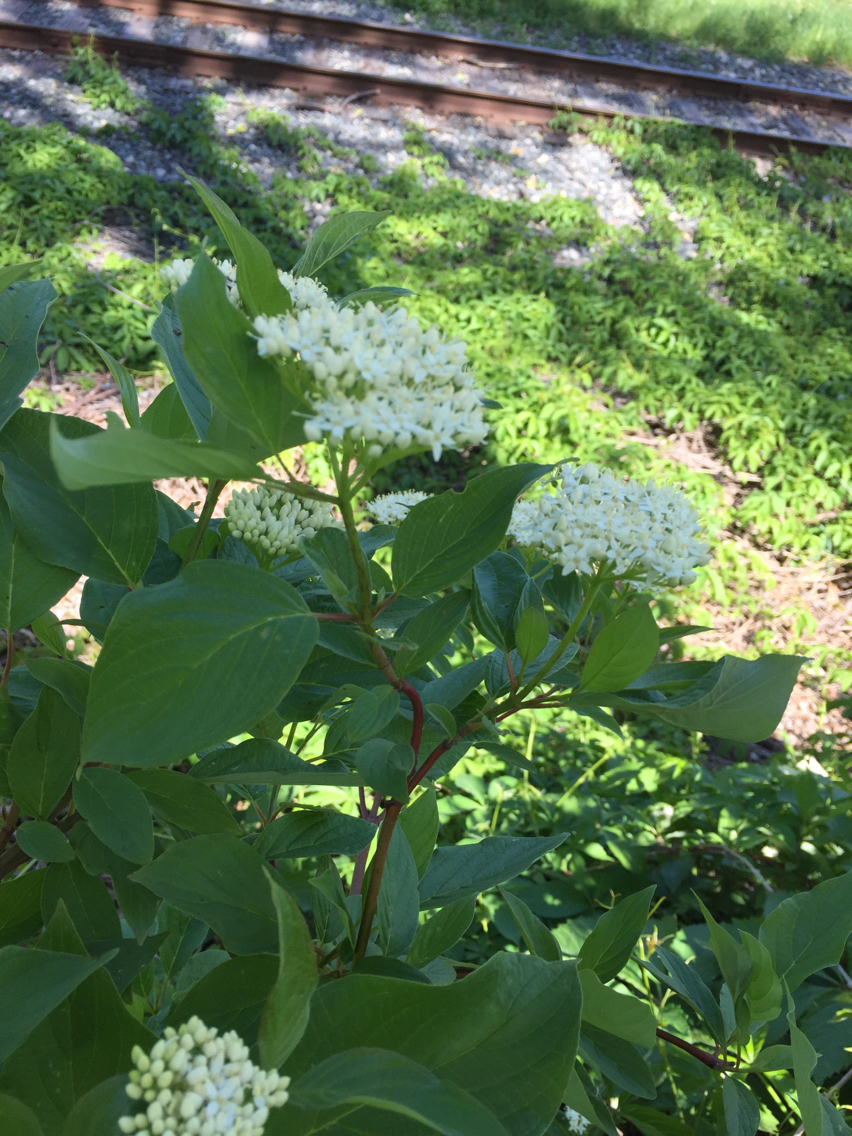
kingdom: Plantae
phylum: Tracheophyta
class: Magnoliopsida
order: Cornales
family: Cornaceae
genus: Cornus
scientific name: Cornus rugosa
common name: Round-leaf dogwood
